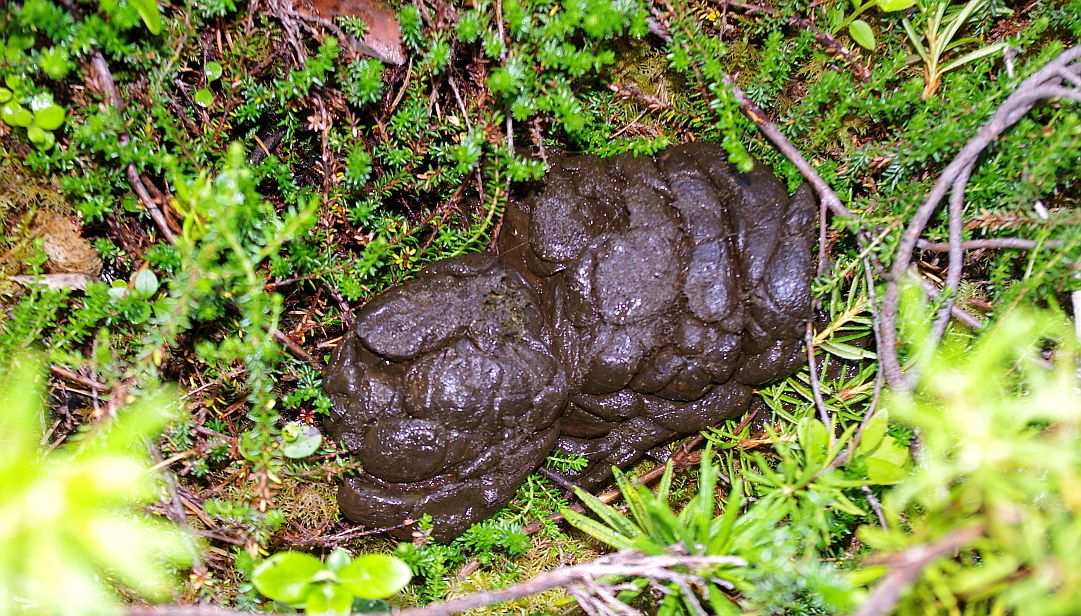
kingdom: Animalia
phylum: Chordata
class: Mammalia
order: Carnivora
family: Ursidae
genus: Ursus
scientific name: Ursus arctos
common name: Brown bear
